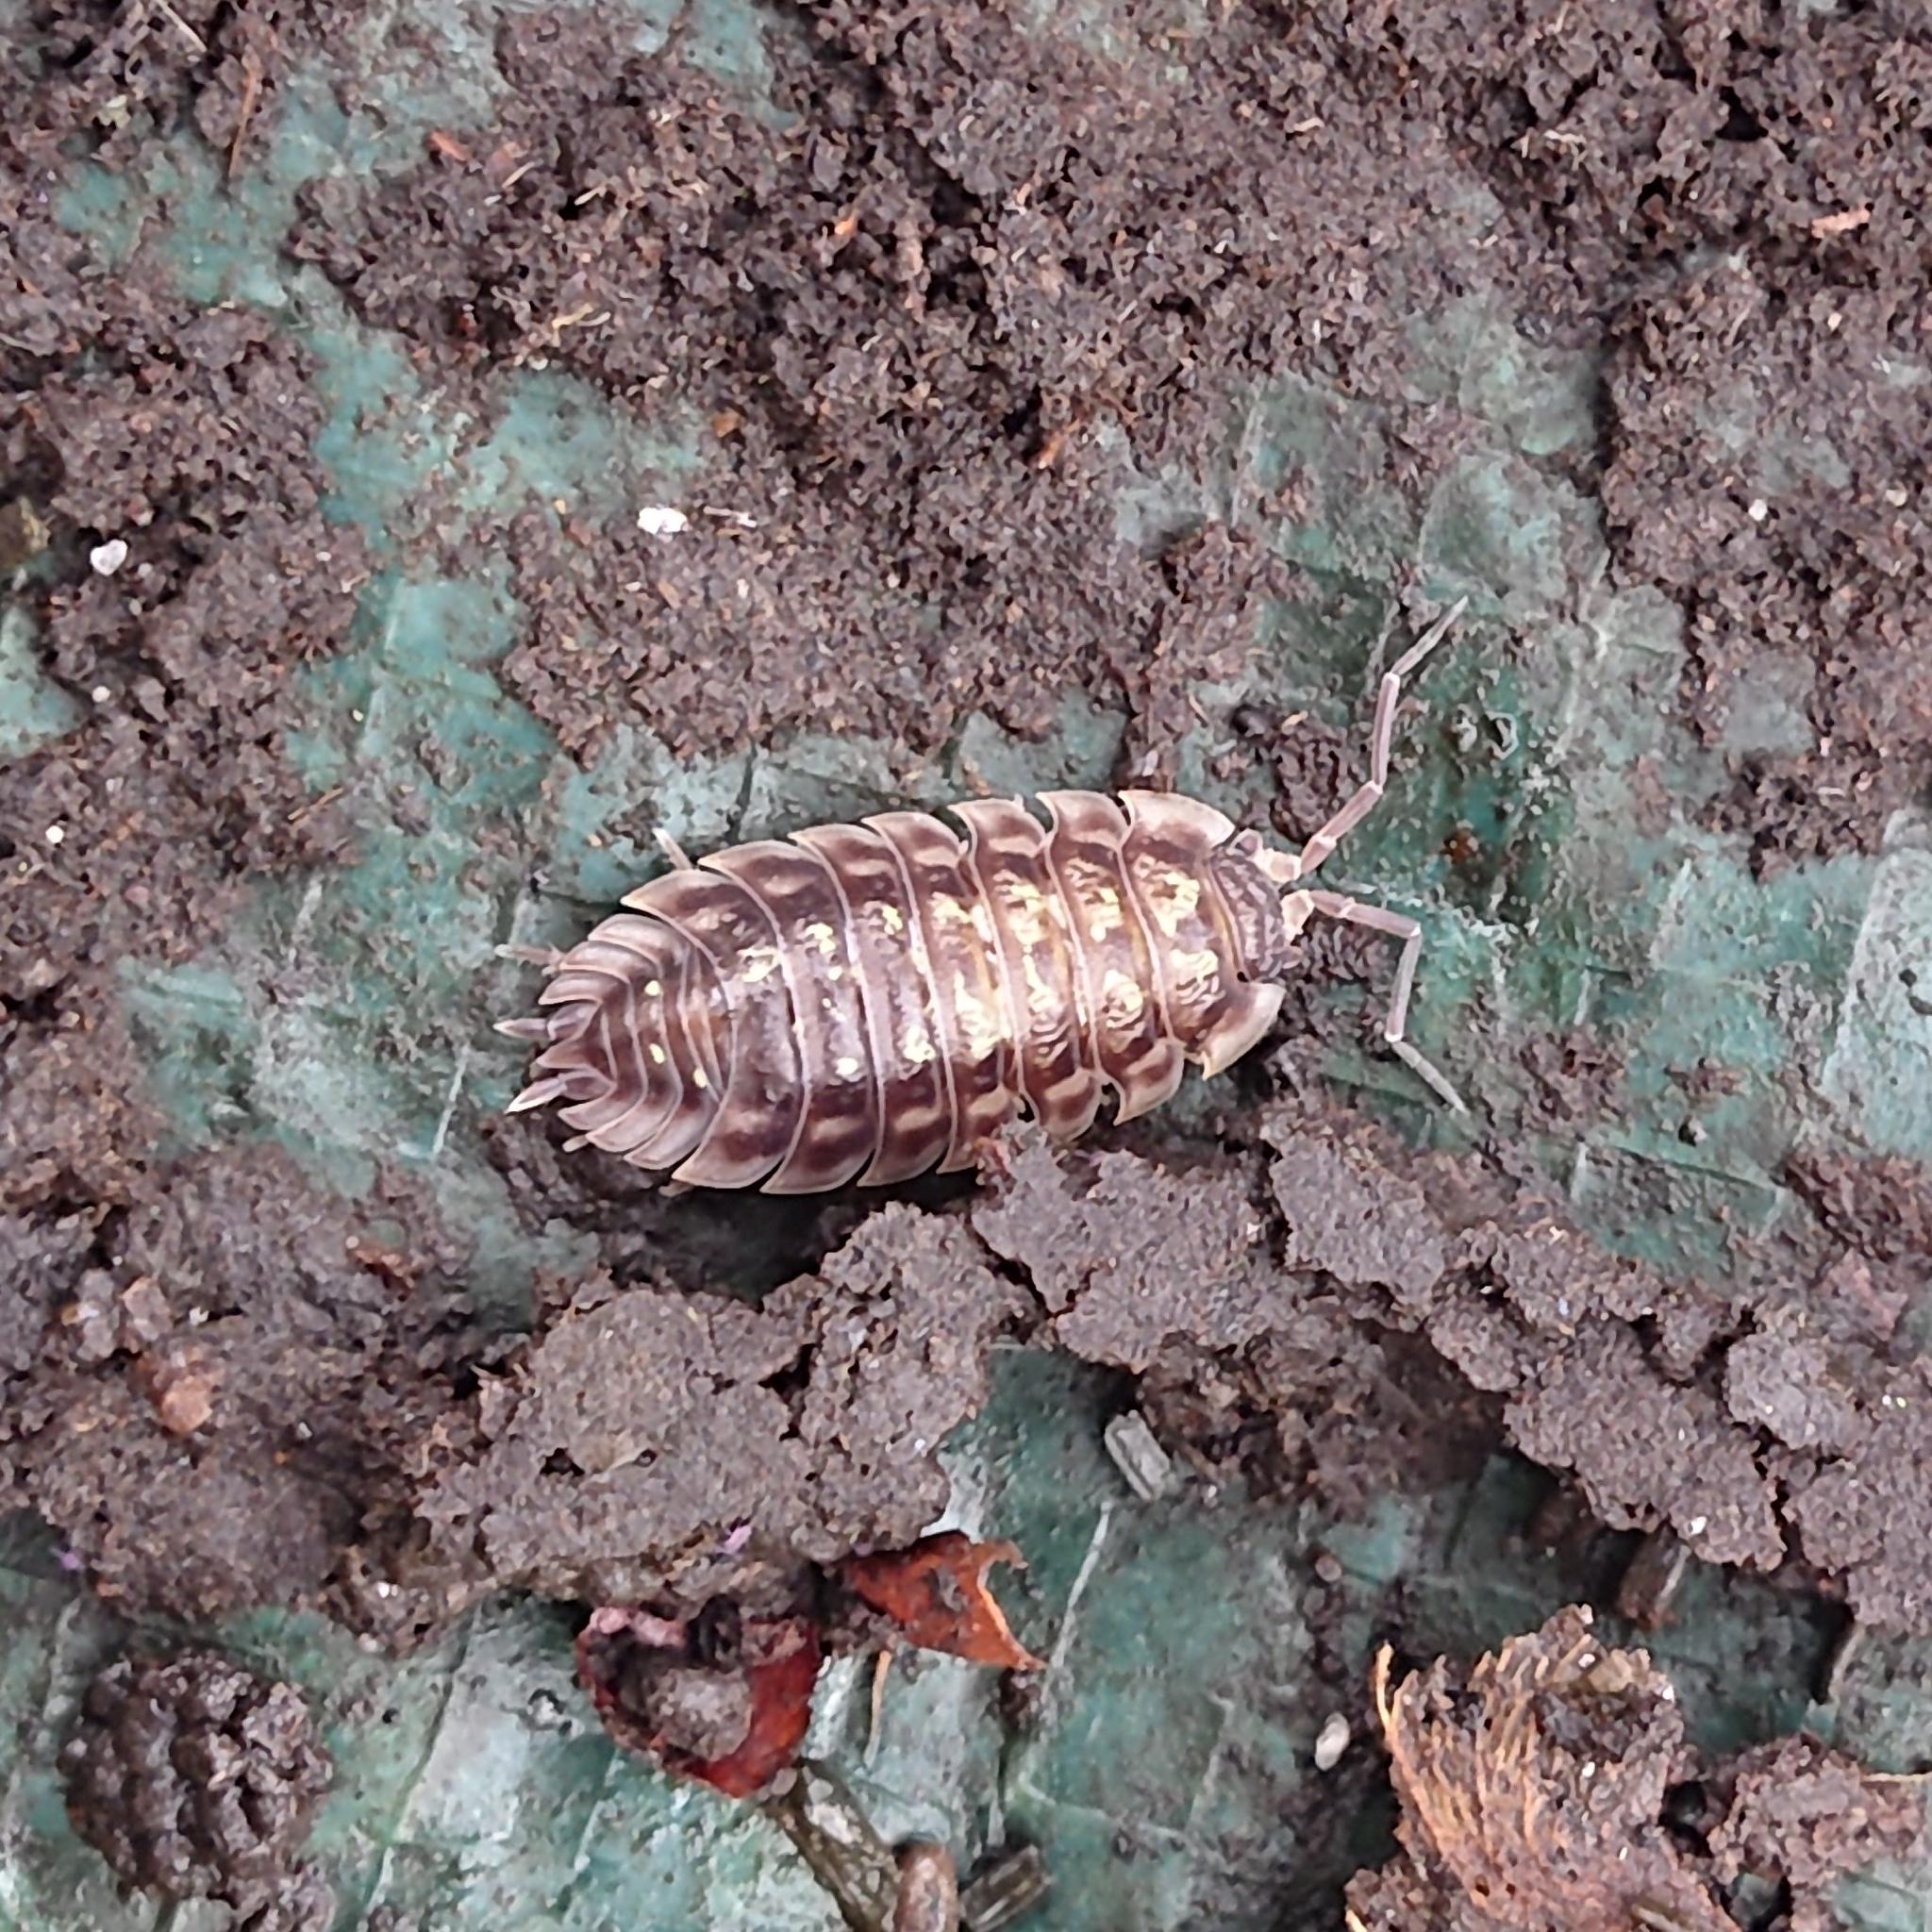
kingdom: Animalia
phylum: Arthropoda
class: Malacostraca
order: Isopoda
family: Oniscidae
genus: Oniscus
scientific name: Oniscus asellus
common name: Common shiny woodlouse
